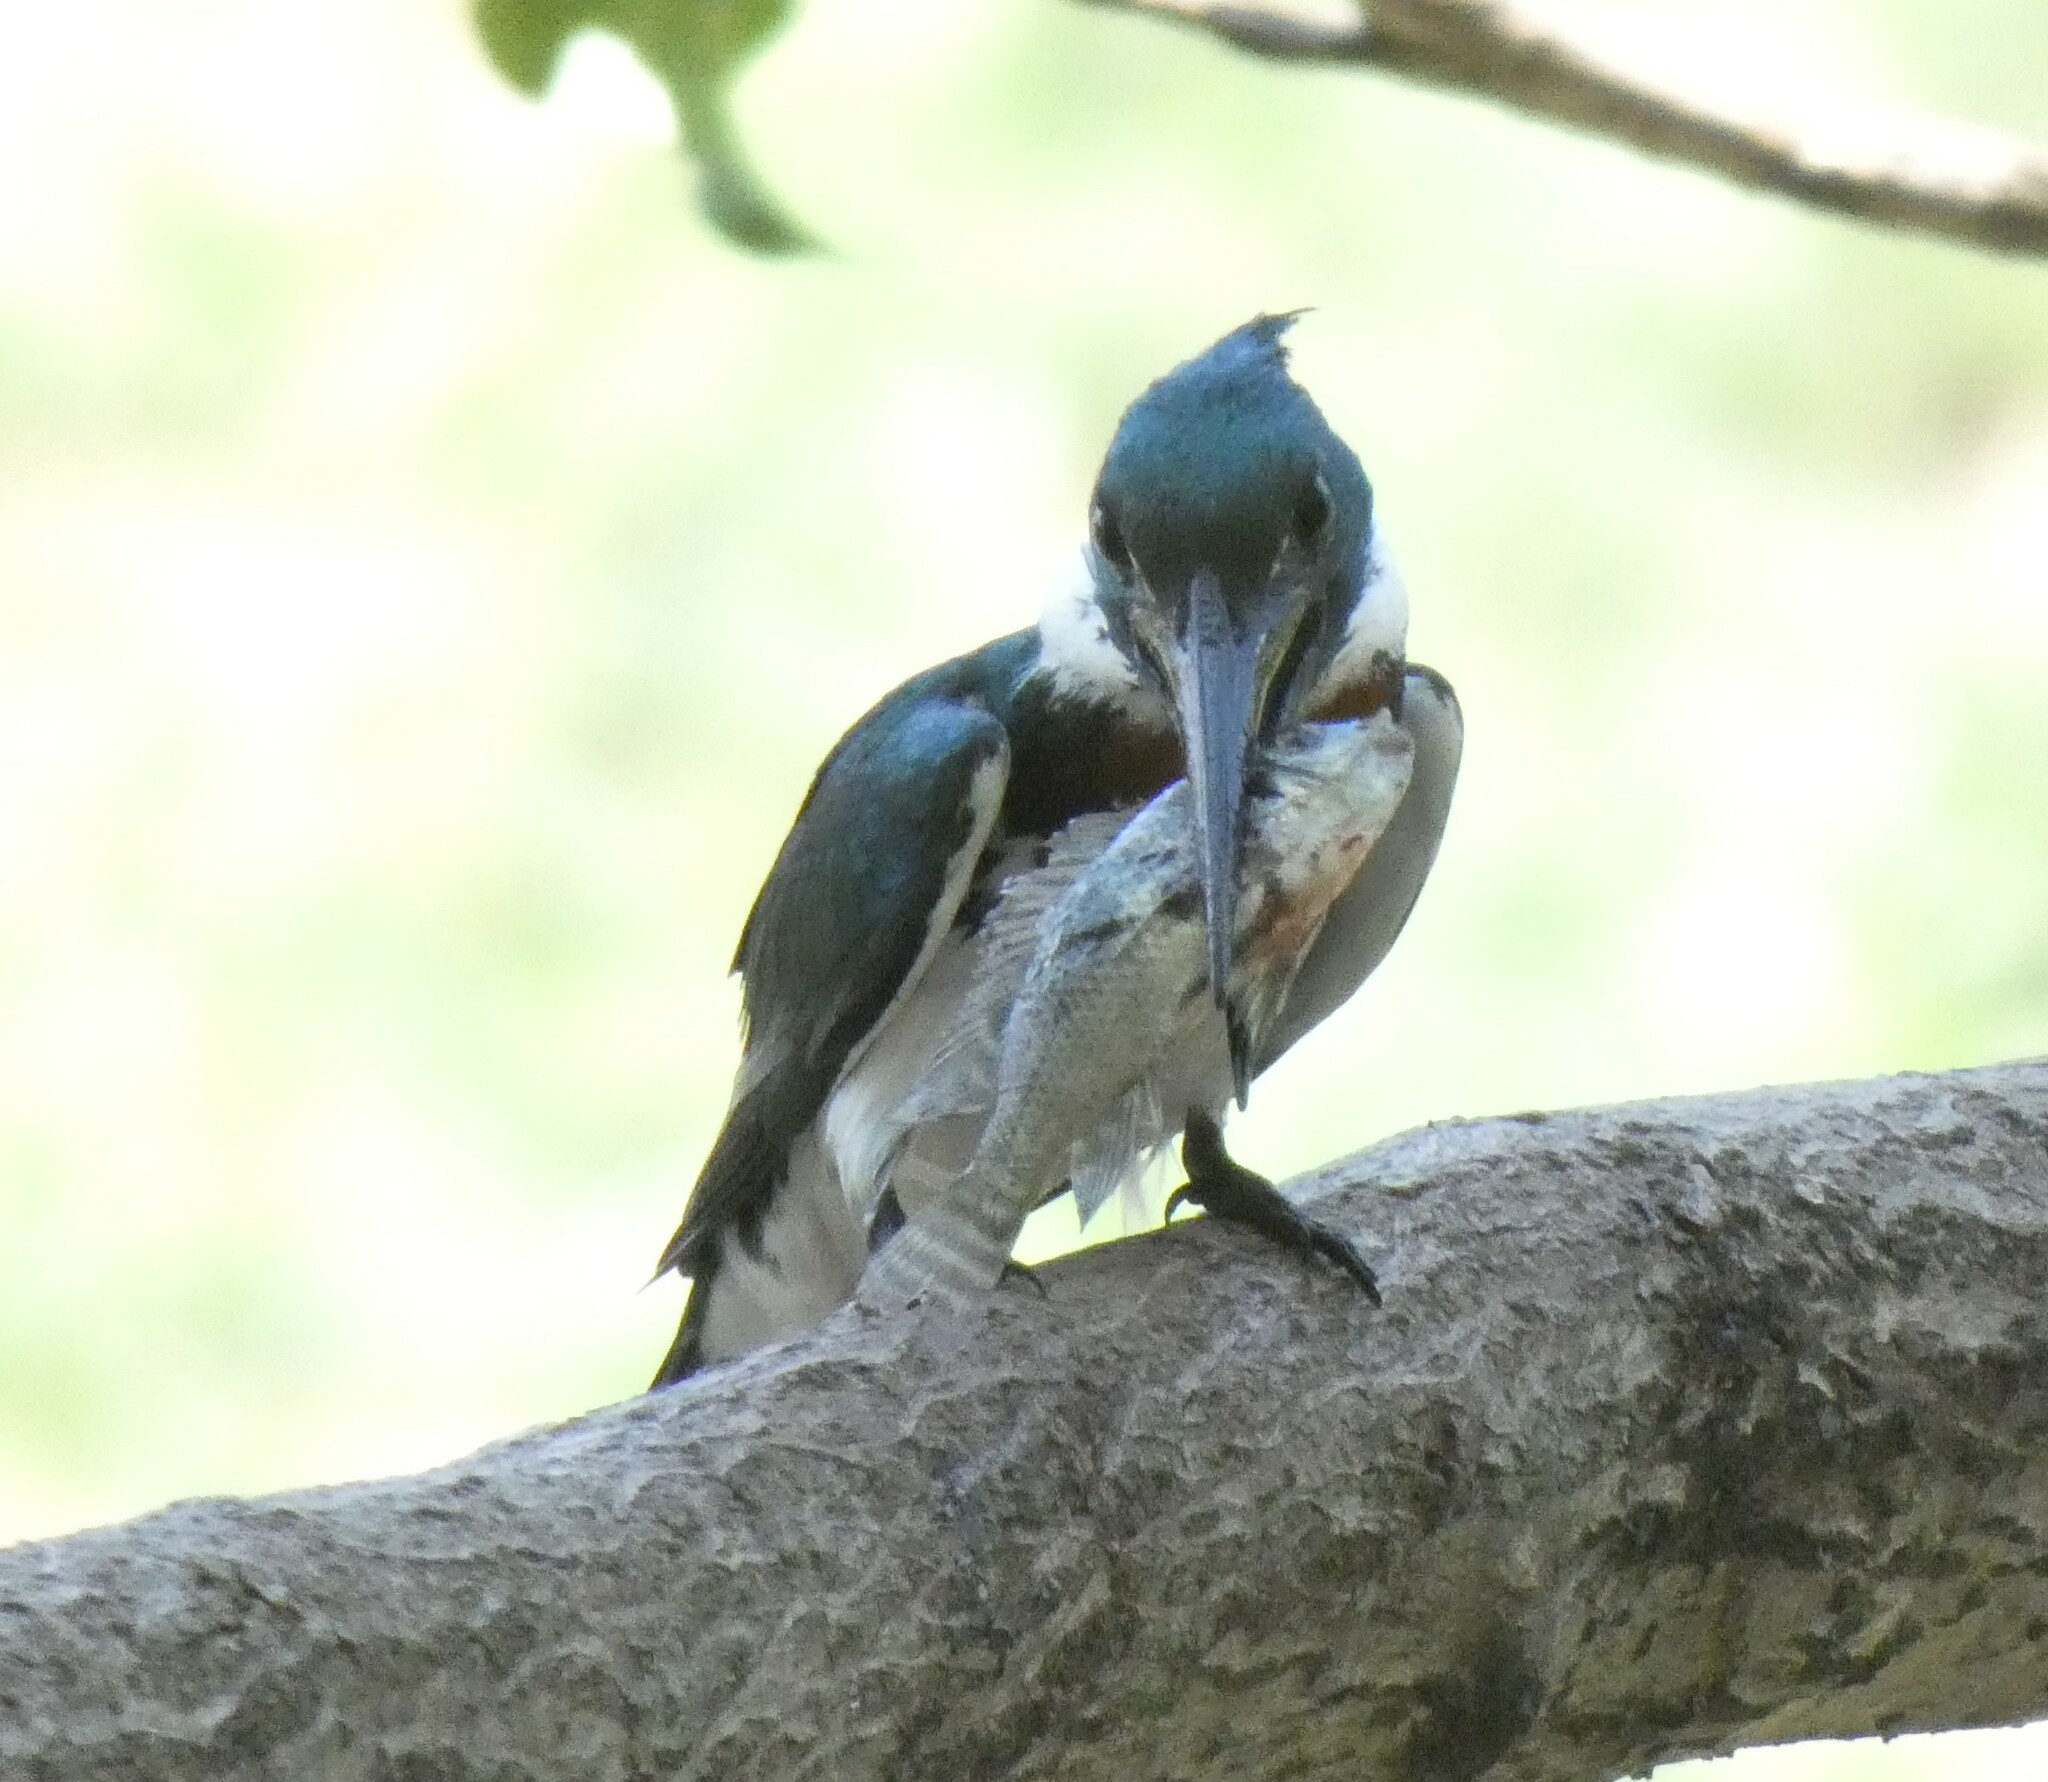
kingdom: Animalia
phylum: Chordata
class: Aves
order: Coraciiformes
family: Alcedinidae
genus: Chloroceryle
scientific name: Chloroceryle amazona
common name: Amazon kingfisher
